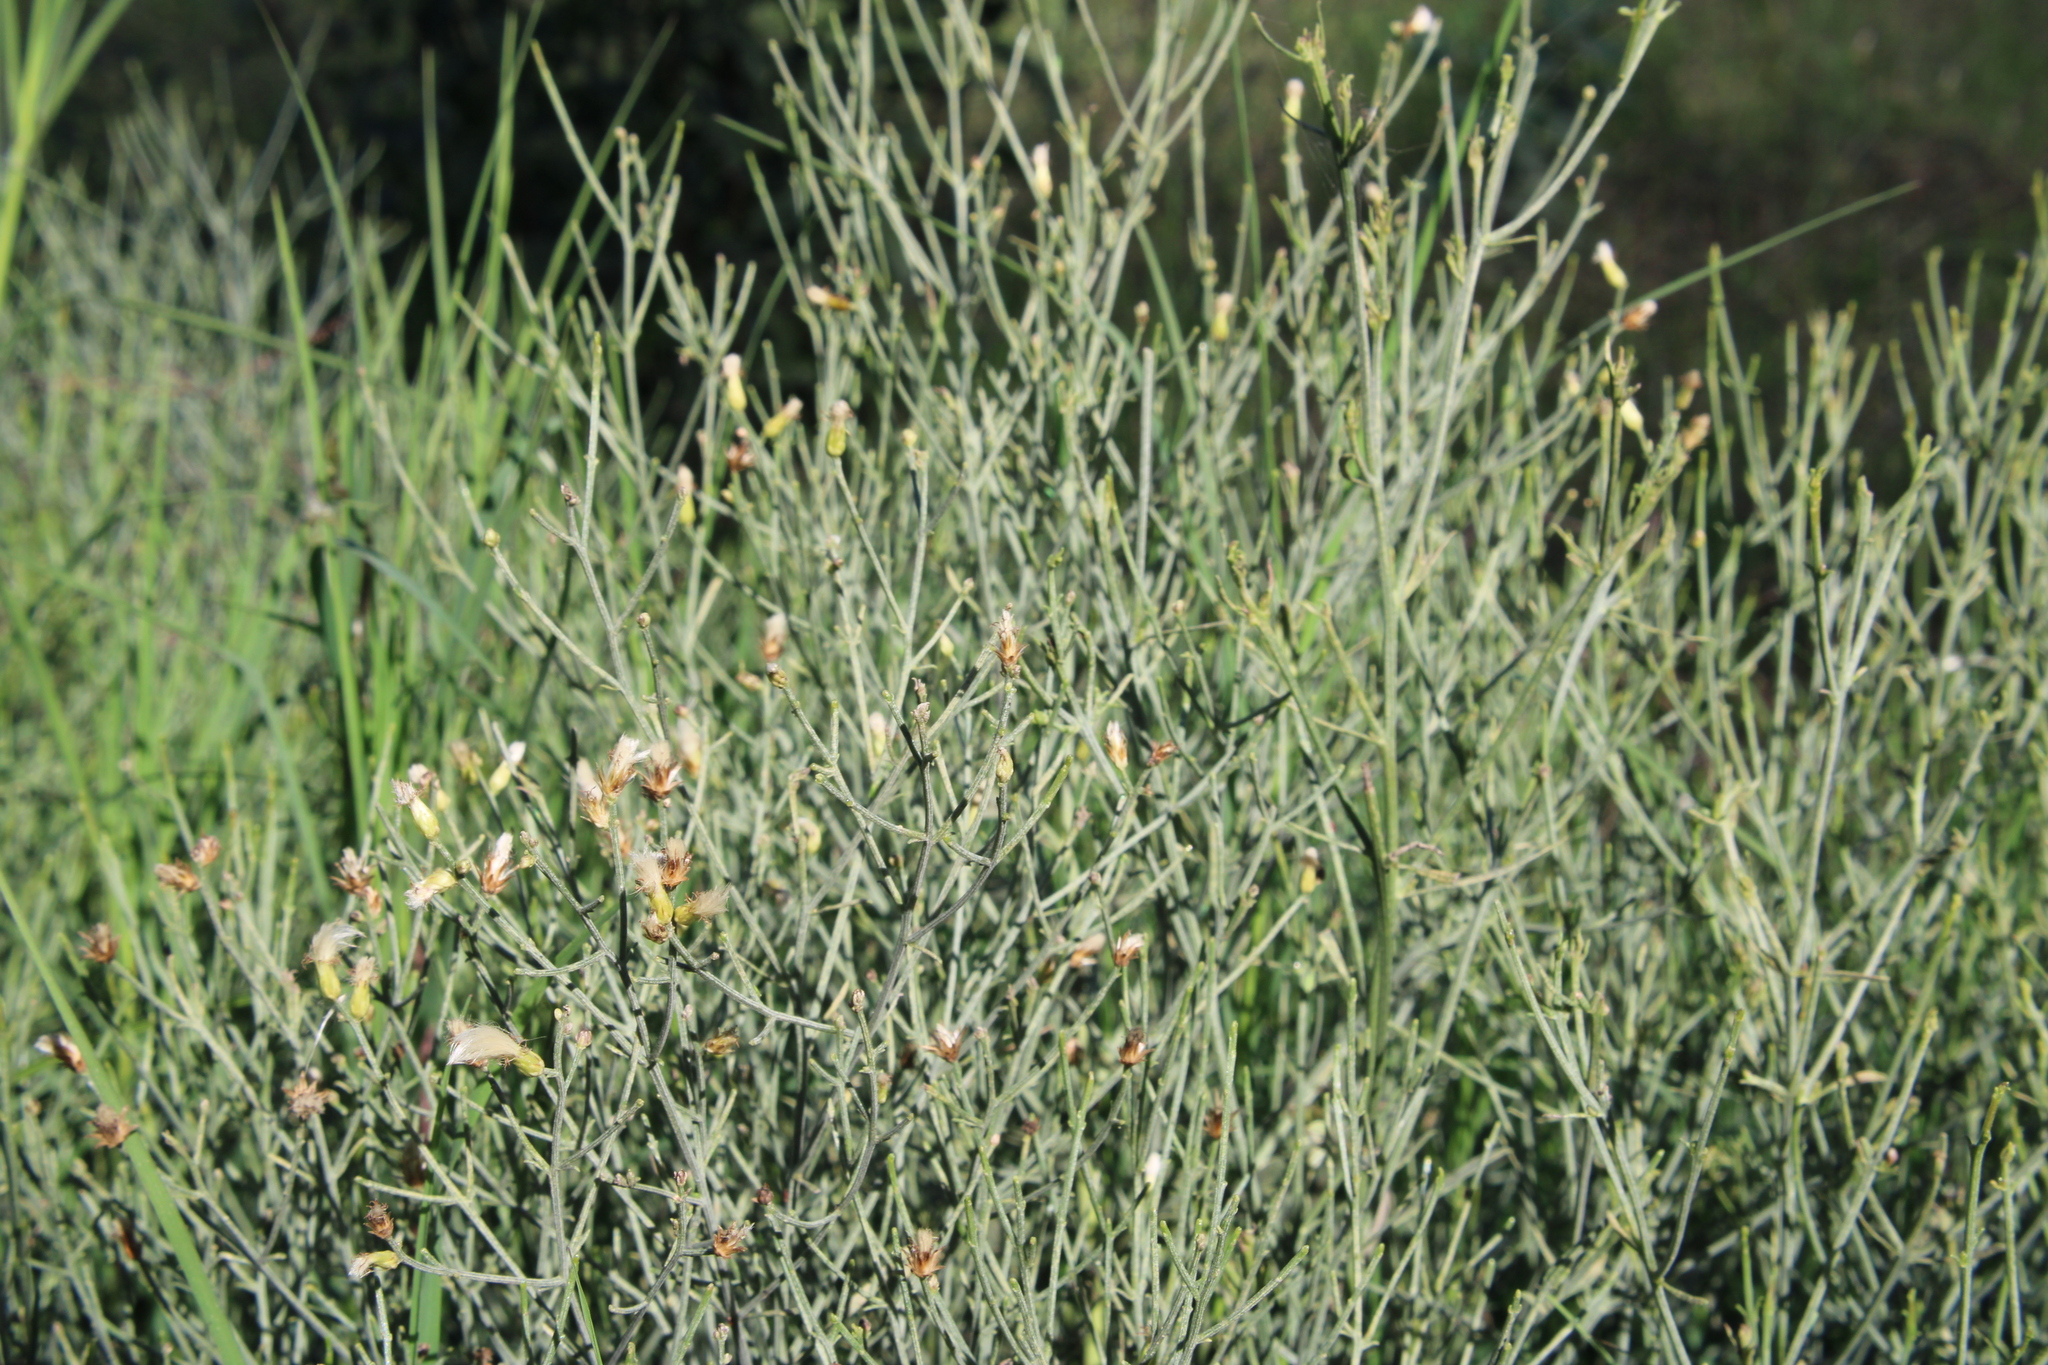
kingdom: Plantae
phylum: Tracheophyta
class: Magnoliopsida
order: Asterales
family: Asteraceae
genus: Baccharis
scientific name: Baccharis notosergila
